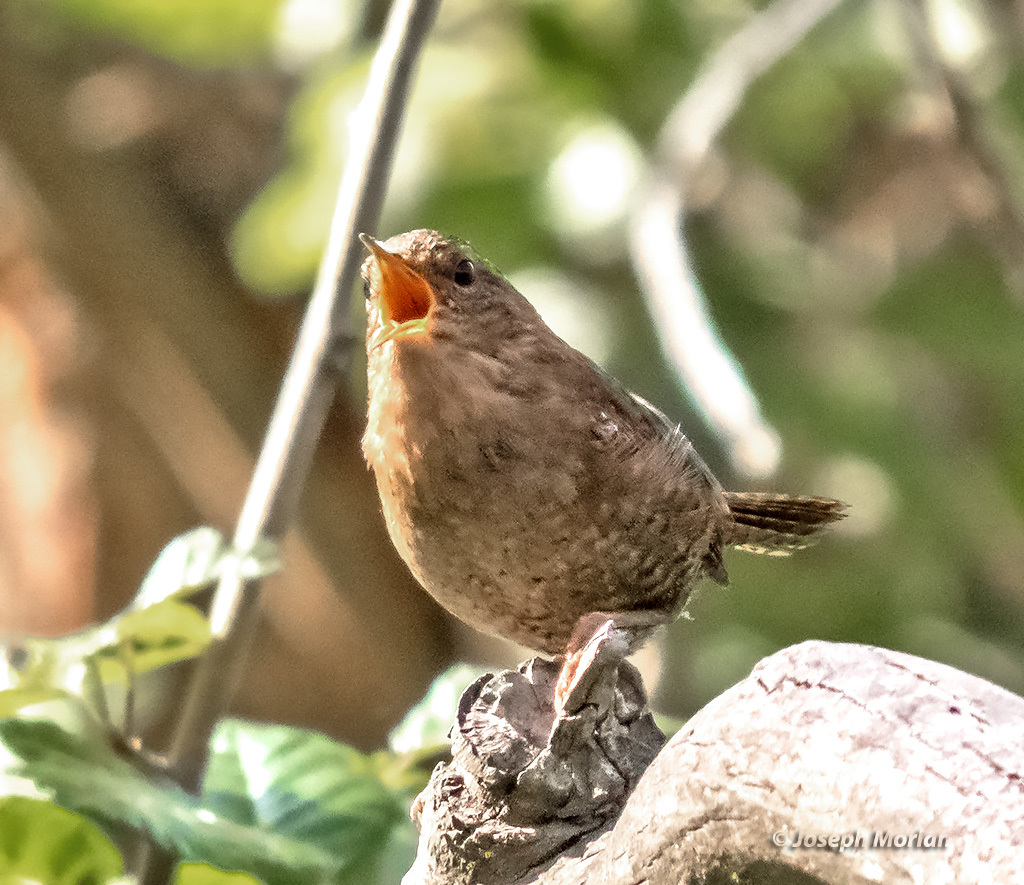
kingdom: Animalia
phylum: Chordata
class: Aves
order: Passeriformes
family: Troglodytidae
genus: Troglodytes
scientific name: Troglodytes pacificus
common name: Pacific wren
